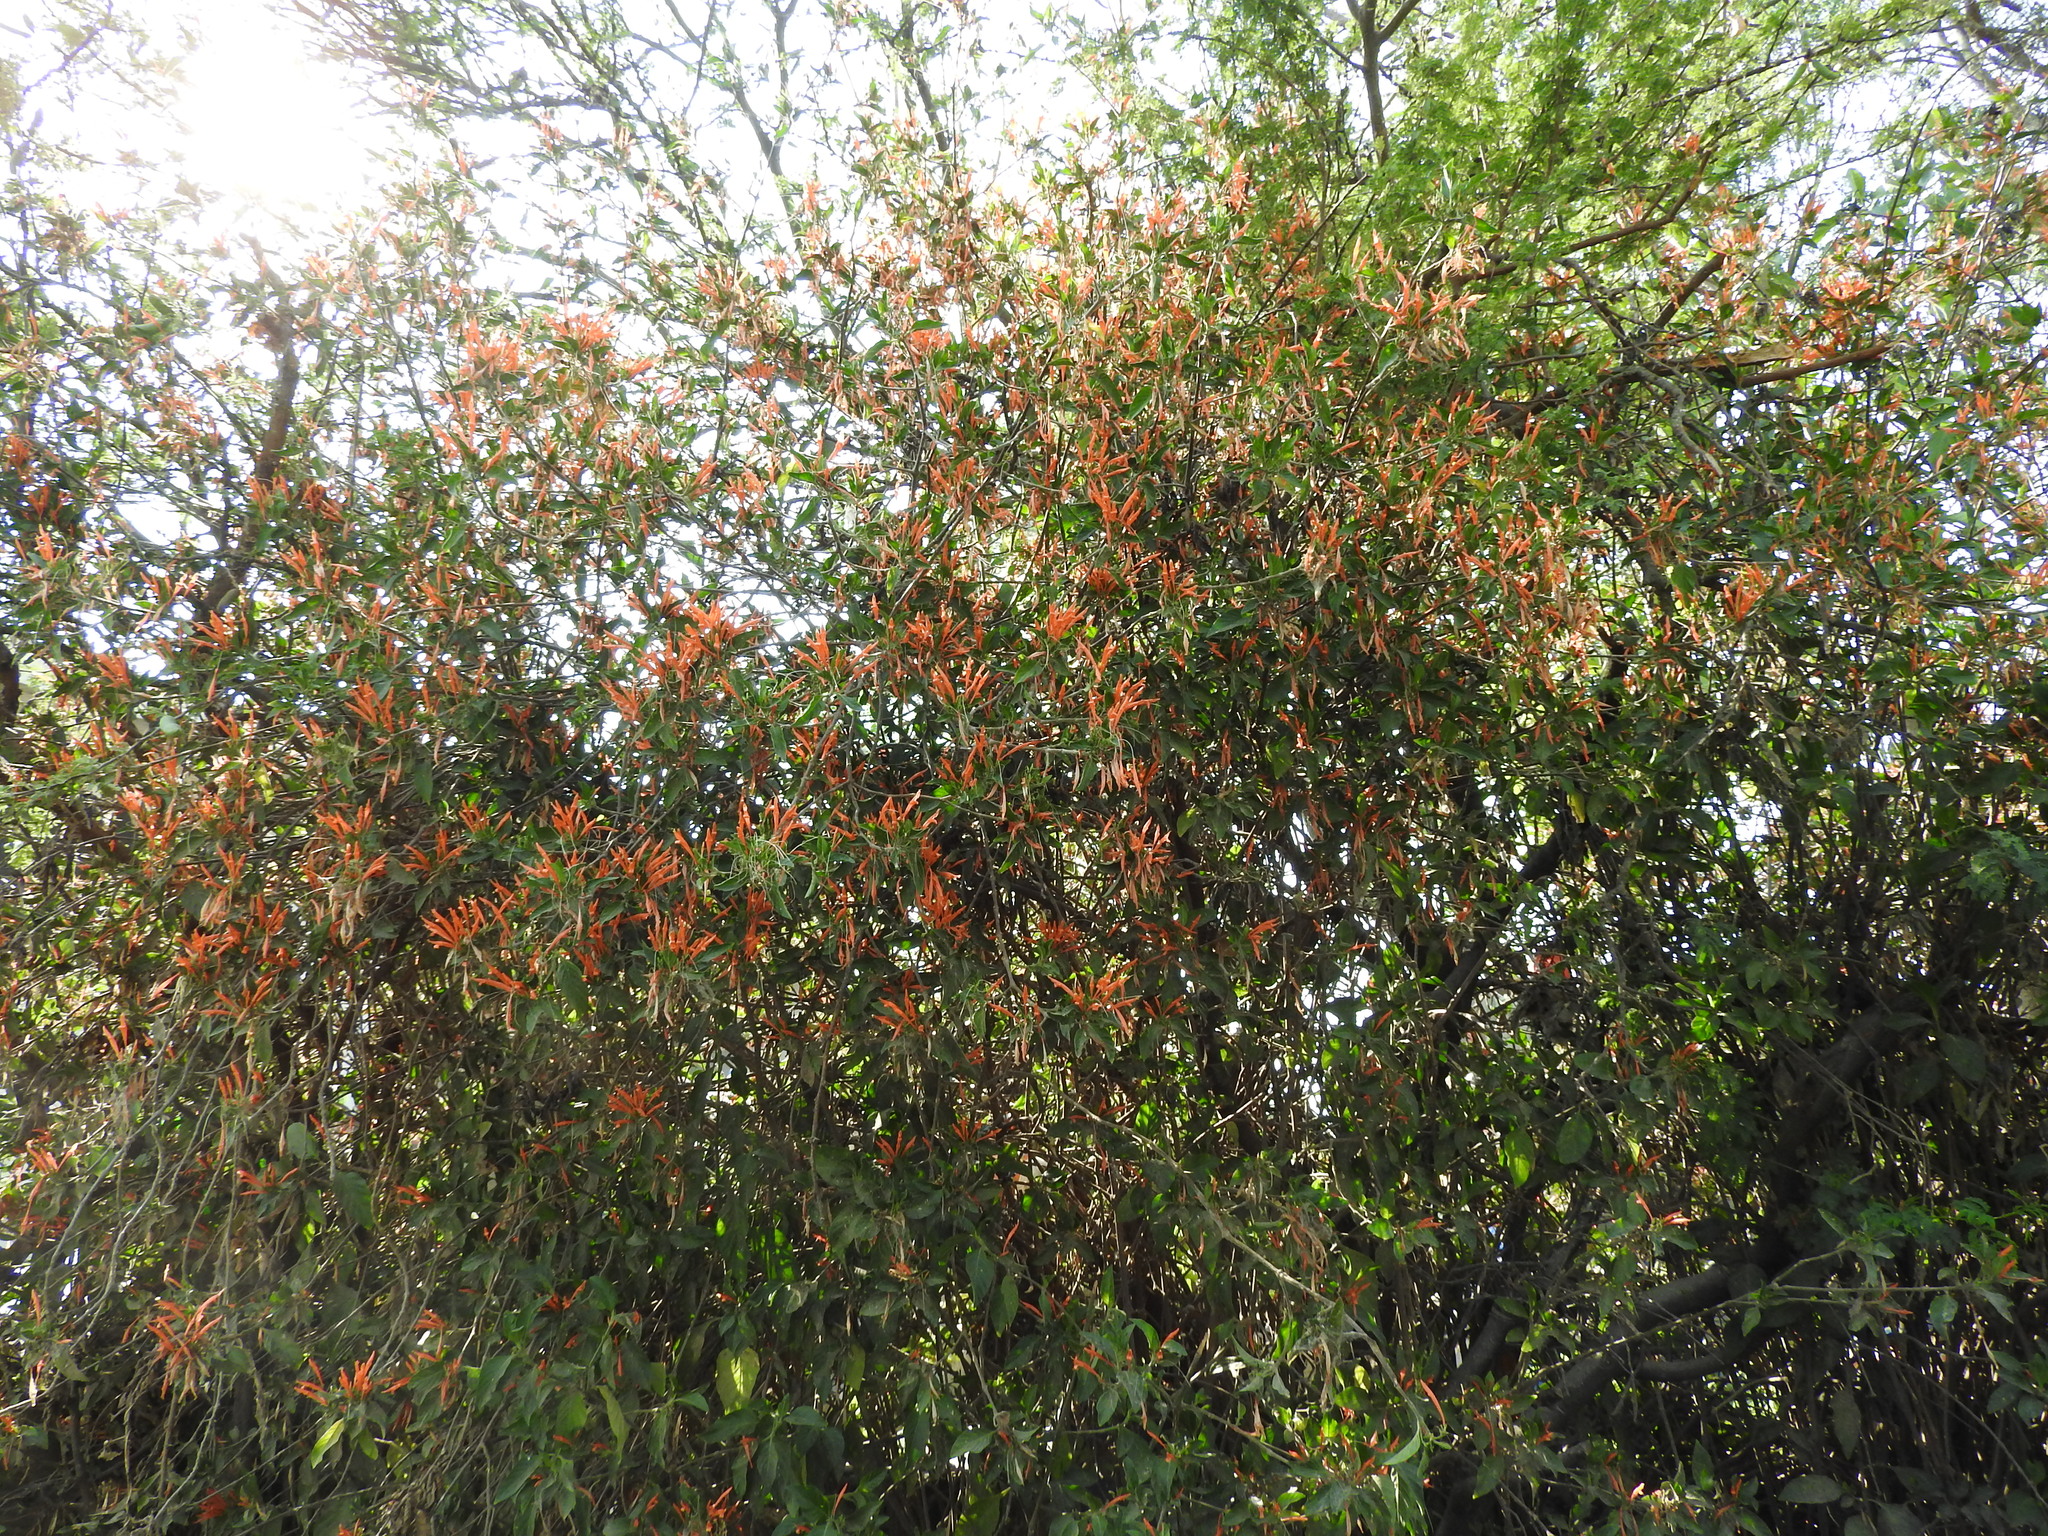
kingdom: Plantae
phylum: Tracheophyta
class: Magnoliopsida
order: Lamiales
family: Acanthaceae
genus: Justicia
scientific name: Justicia spicigera
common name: Mohintli
